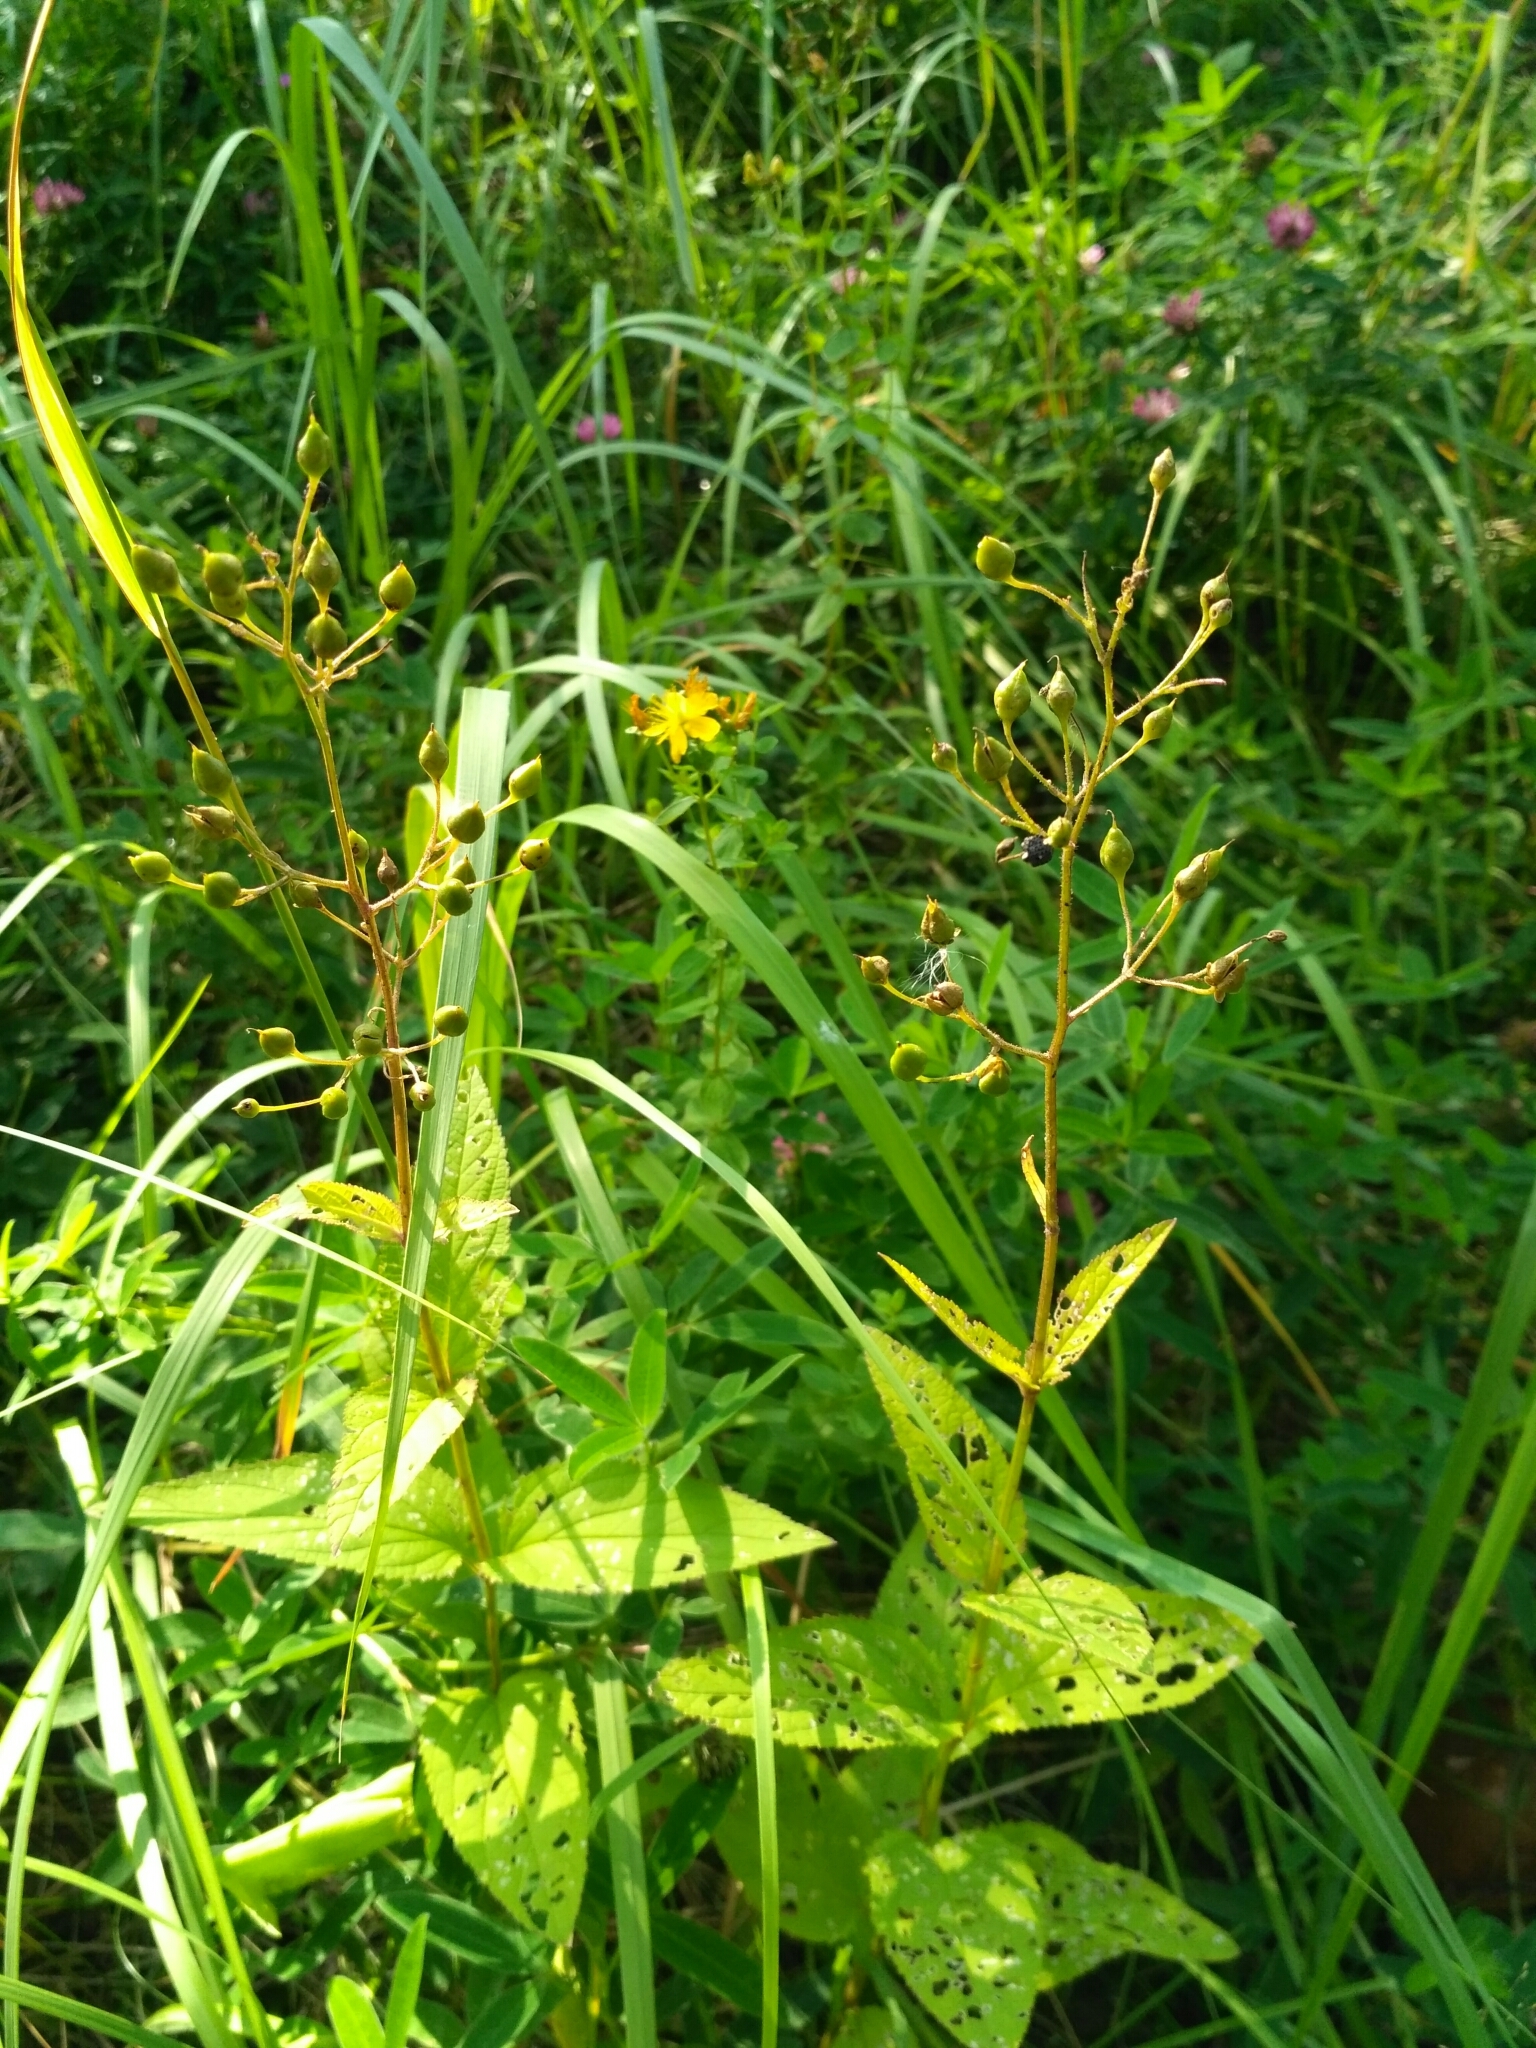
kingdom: Plantae
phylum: Tracheophyta
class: Magnoliopsida
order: Lamiales
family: Scrophulariaceae
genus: Scrophularia
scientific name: Scrophularia nodosa
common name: Common figwort
